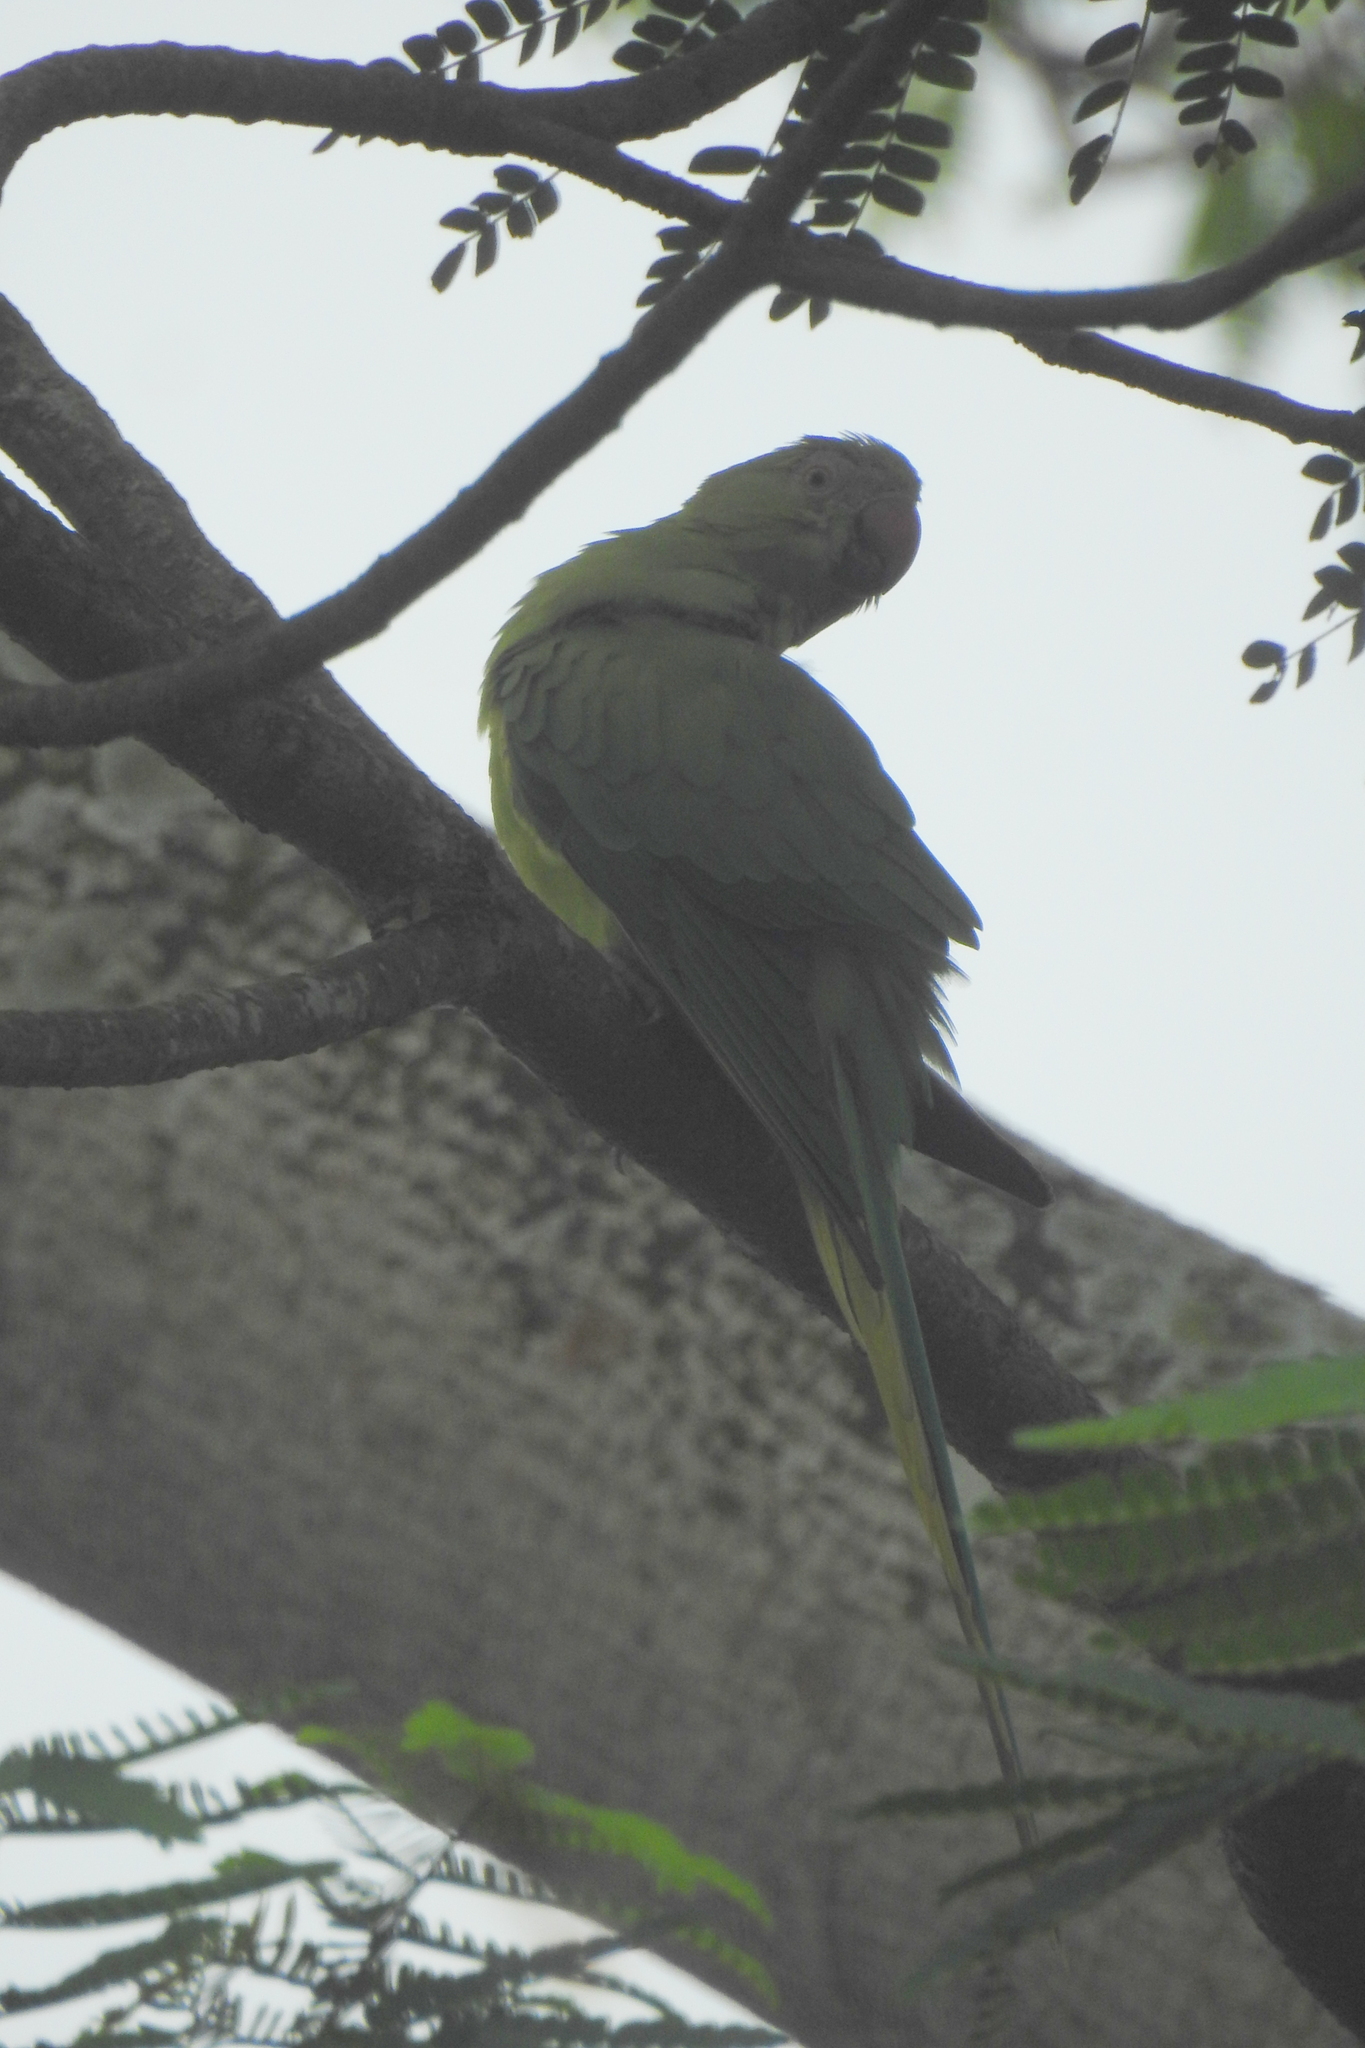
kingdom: Animalia
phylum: Chordata
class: Aves
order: Psittaciformes
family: Psittacidae
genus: Psittacula
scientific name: Psittacula krameri
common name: Rose-ringed parakeet
